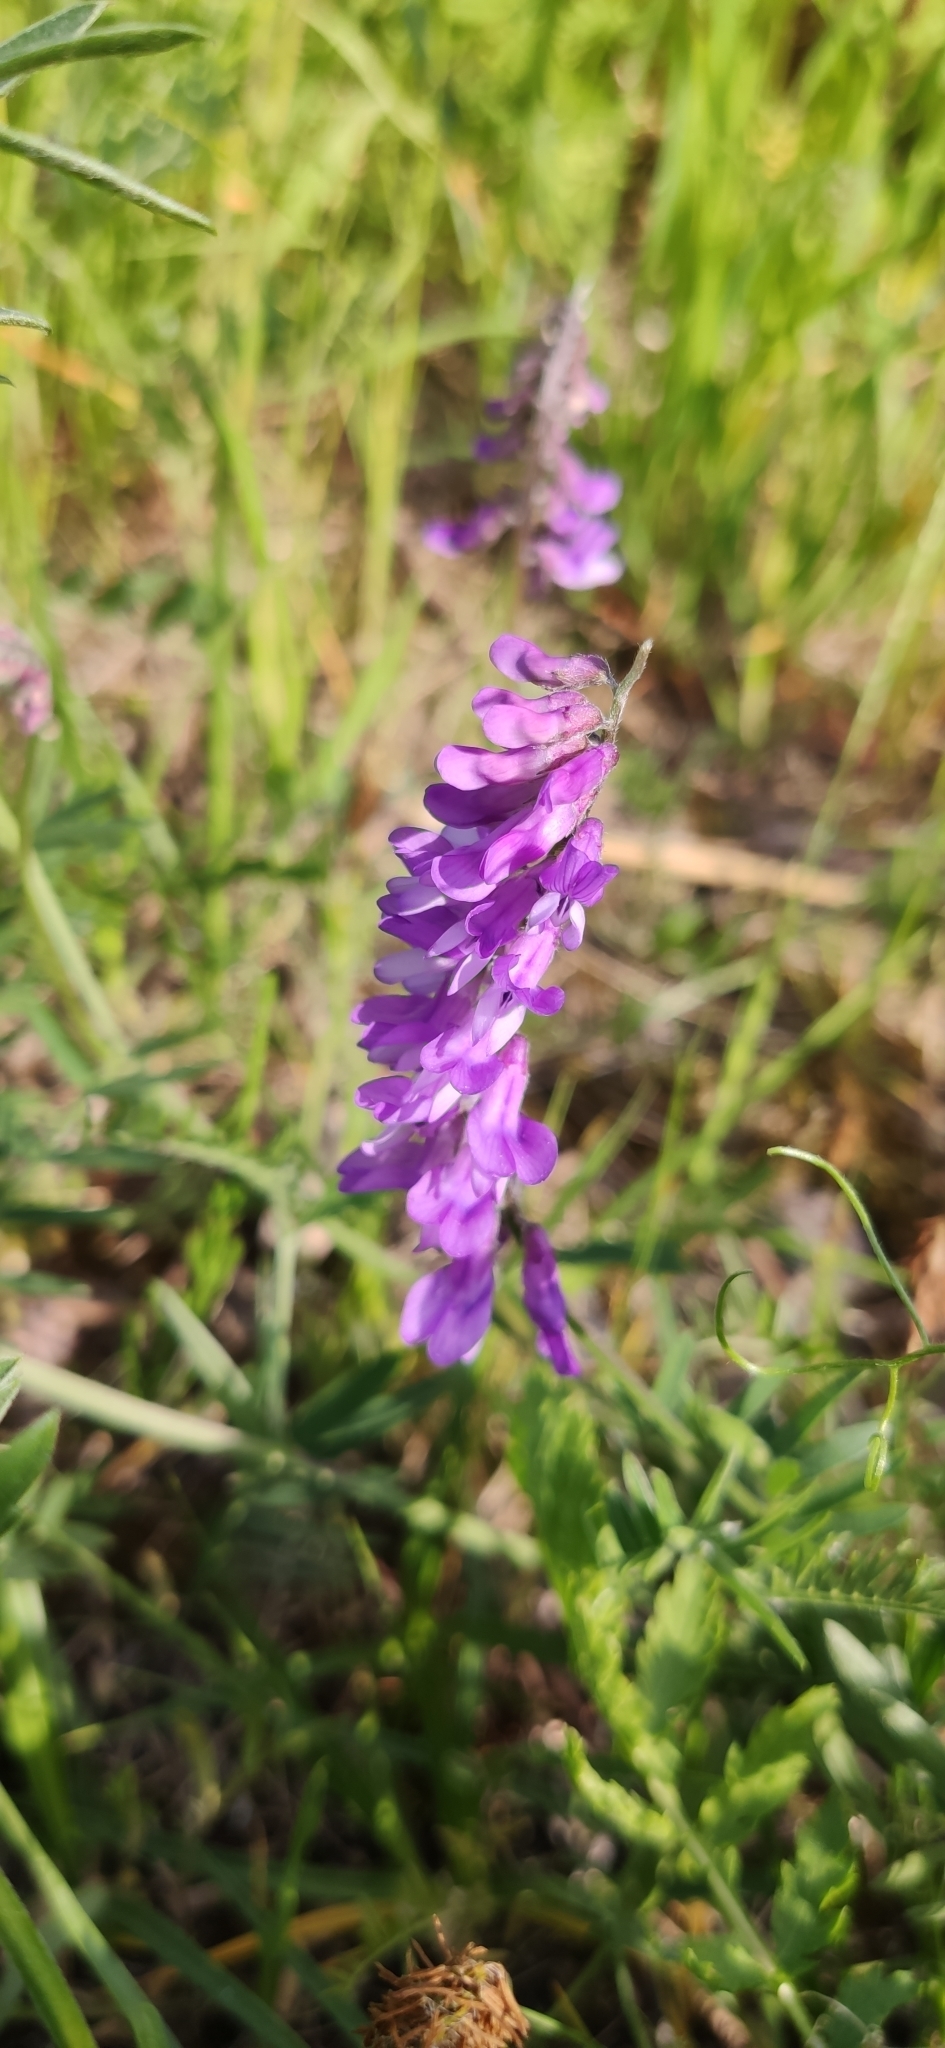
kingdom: Plantae
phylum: Tracheophyta
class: Magnoliopsida
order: Fabales
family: Fabaceae
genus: Vicia
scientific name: Vicia cracca
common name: Bird vetch
